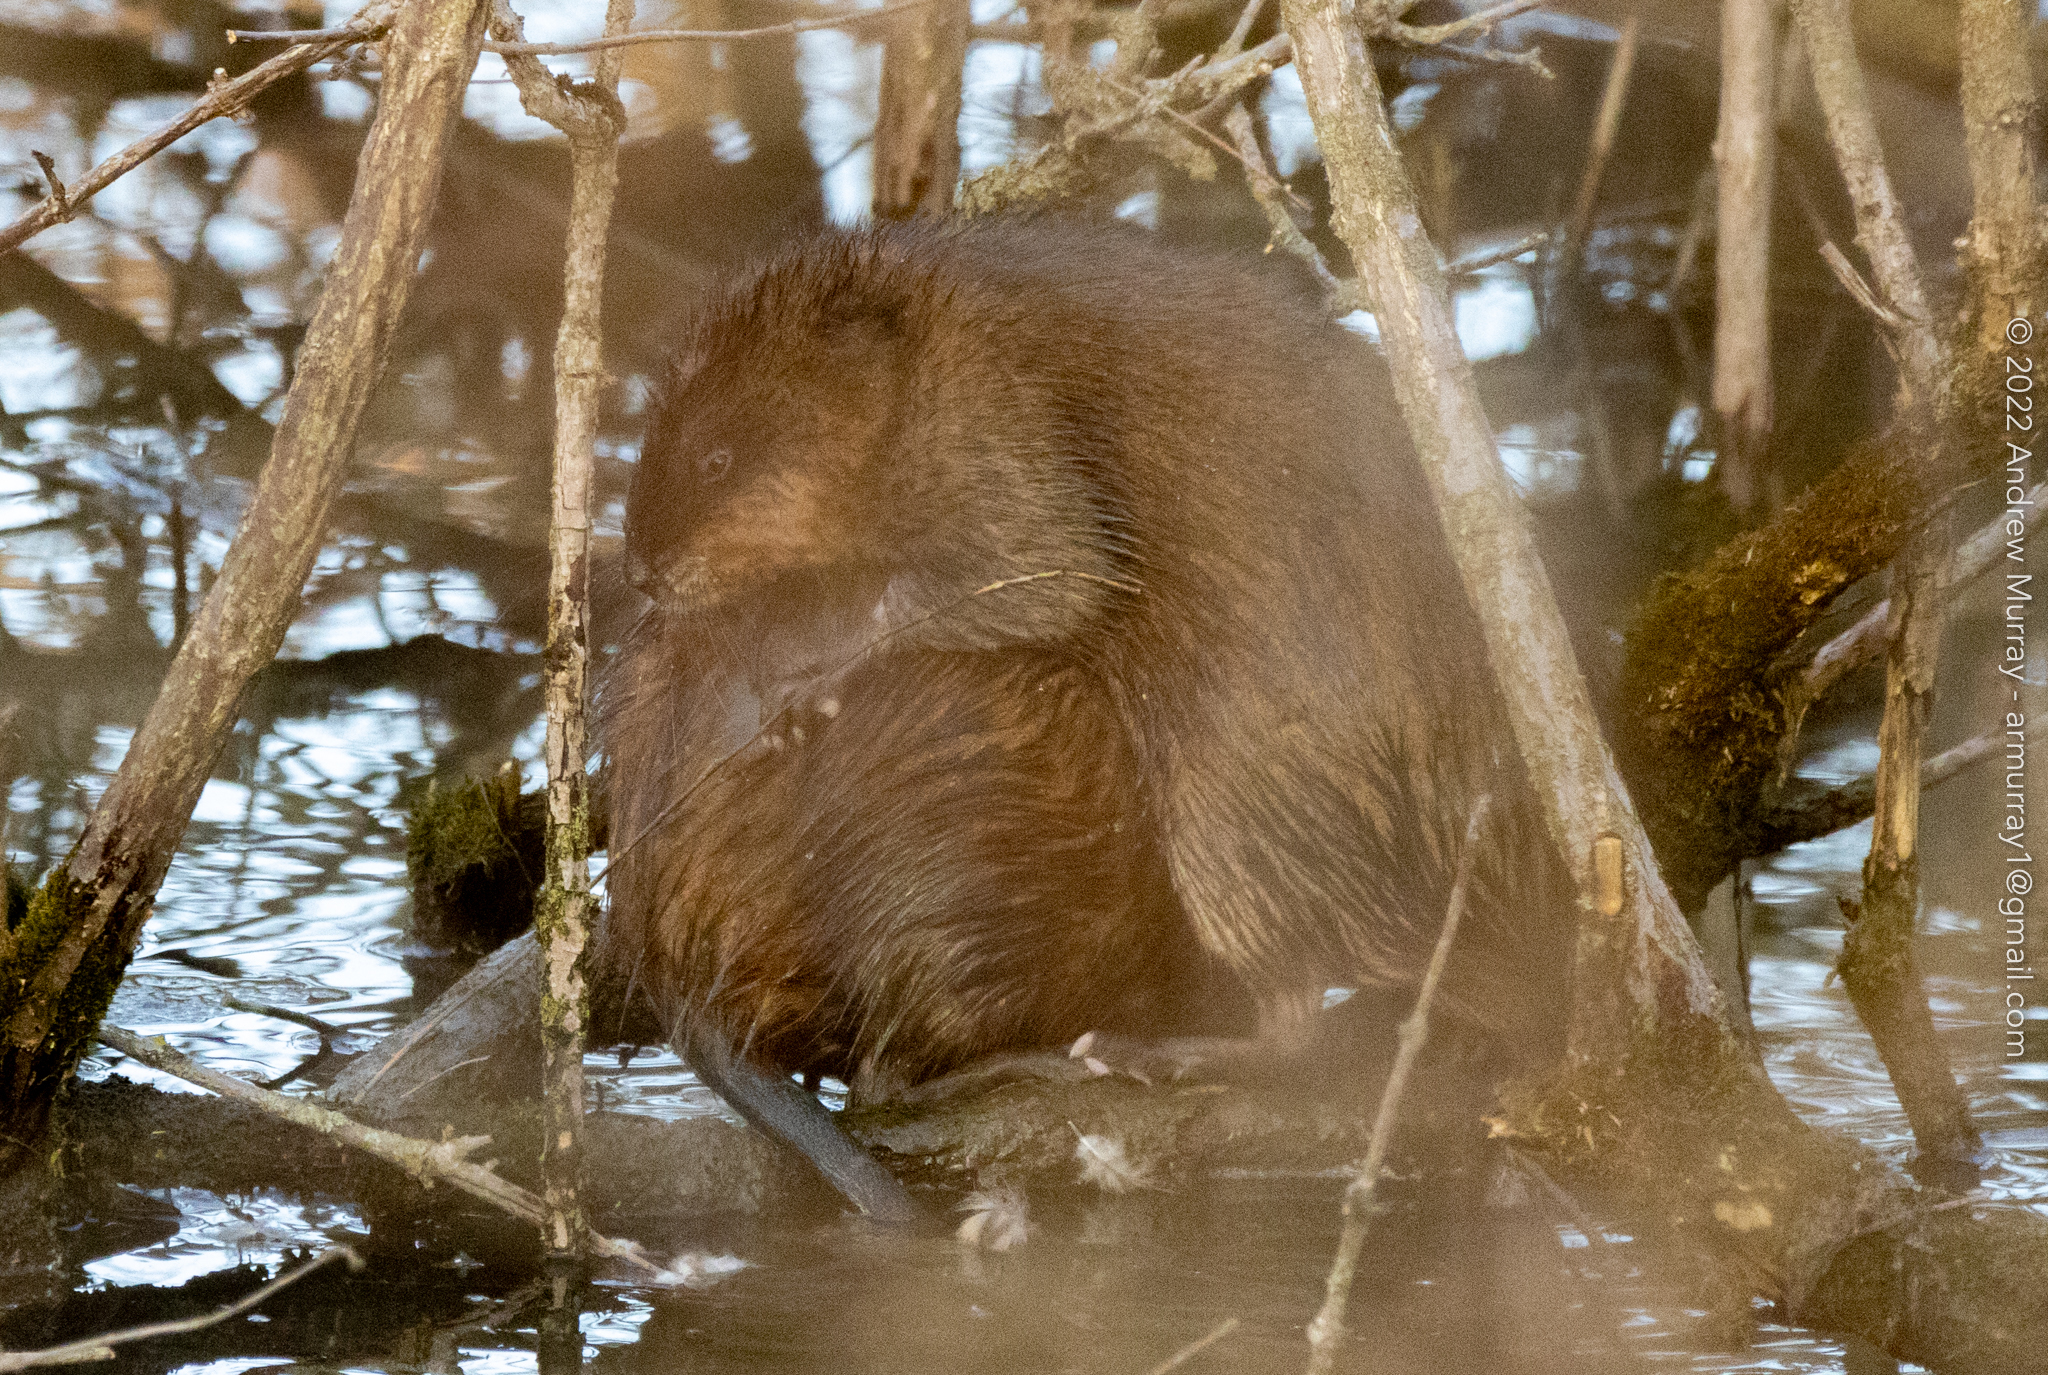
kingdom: Animalia
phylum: Chordata
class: Mammalia
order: Rodentia
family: Cricetidae
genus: Ondatra
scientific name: Ondatra zibethicus
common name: Muskrat
